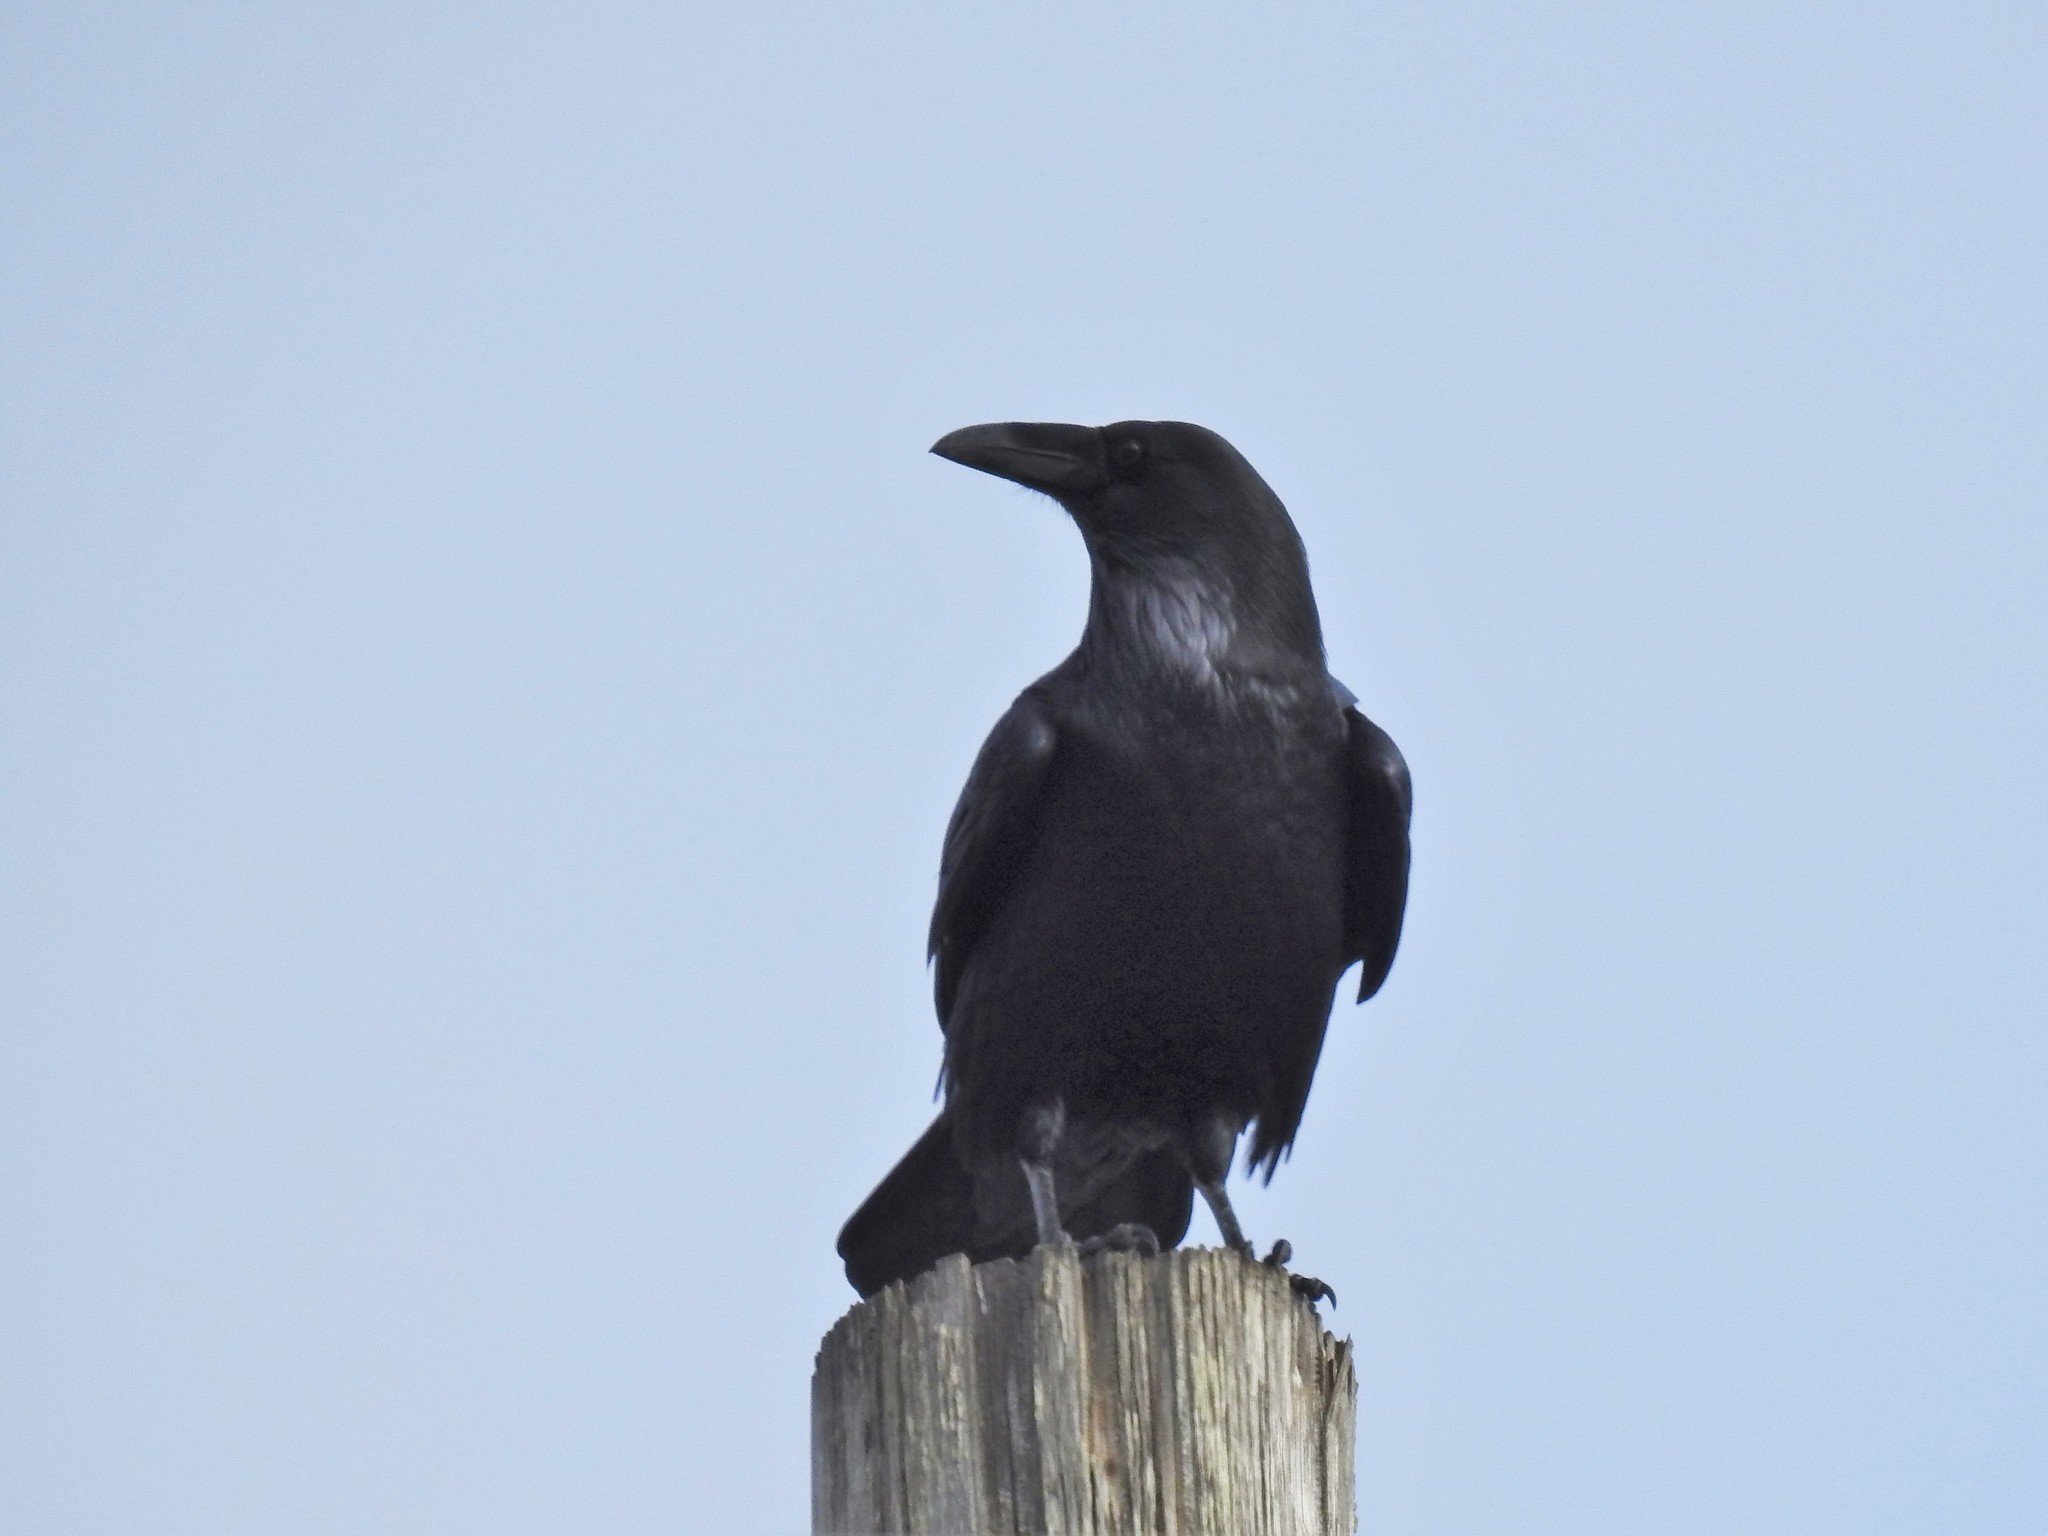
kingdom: Animalia
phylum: Chordata
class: Aves
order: Passeriformes
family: Corvidae
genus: Corvus
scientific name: Corvus corax
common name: Common raven
